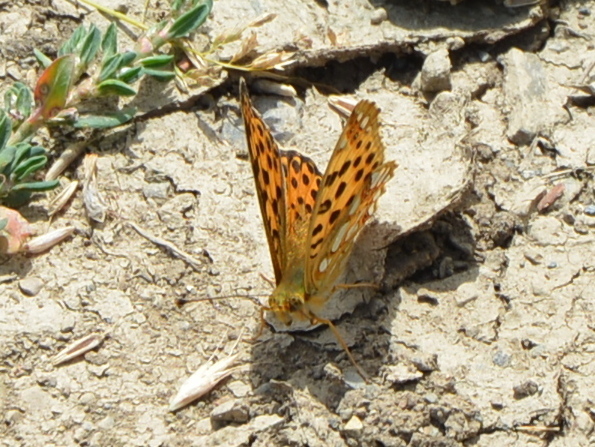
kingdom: Animalia
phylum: Arthropoda
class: Insecta
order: Lepidoptera
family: Nymphalidae
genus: Issoria
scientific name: Issoria lathonia
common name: Queen of spain fritillary
